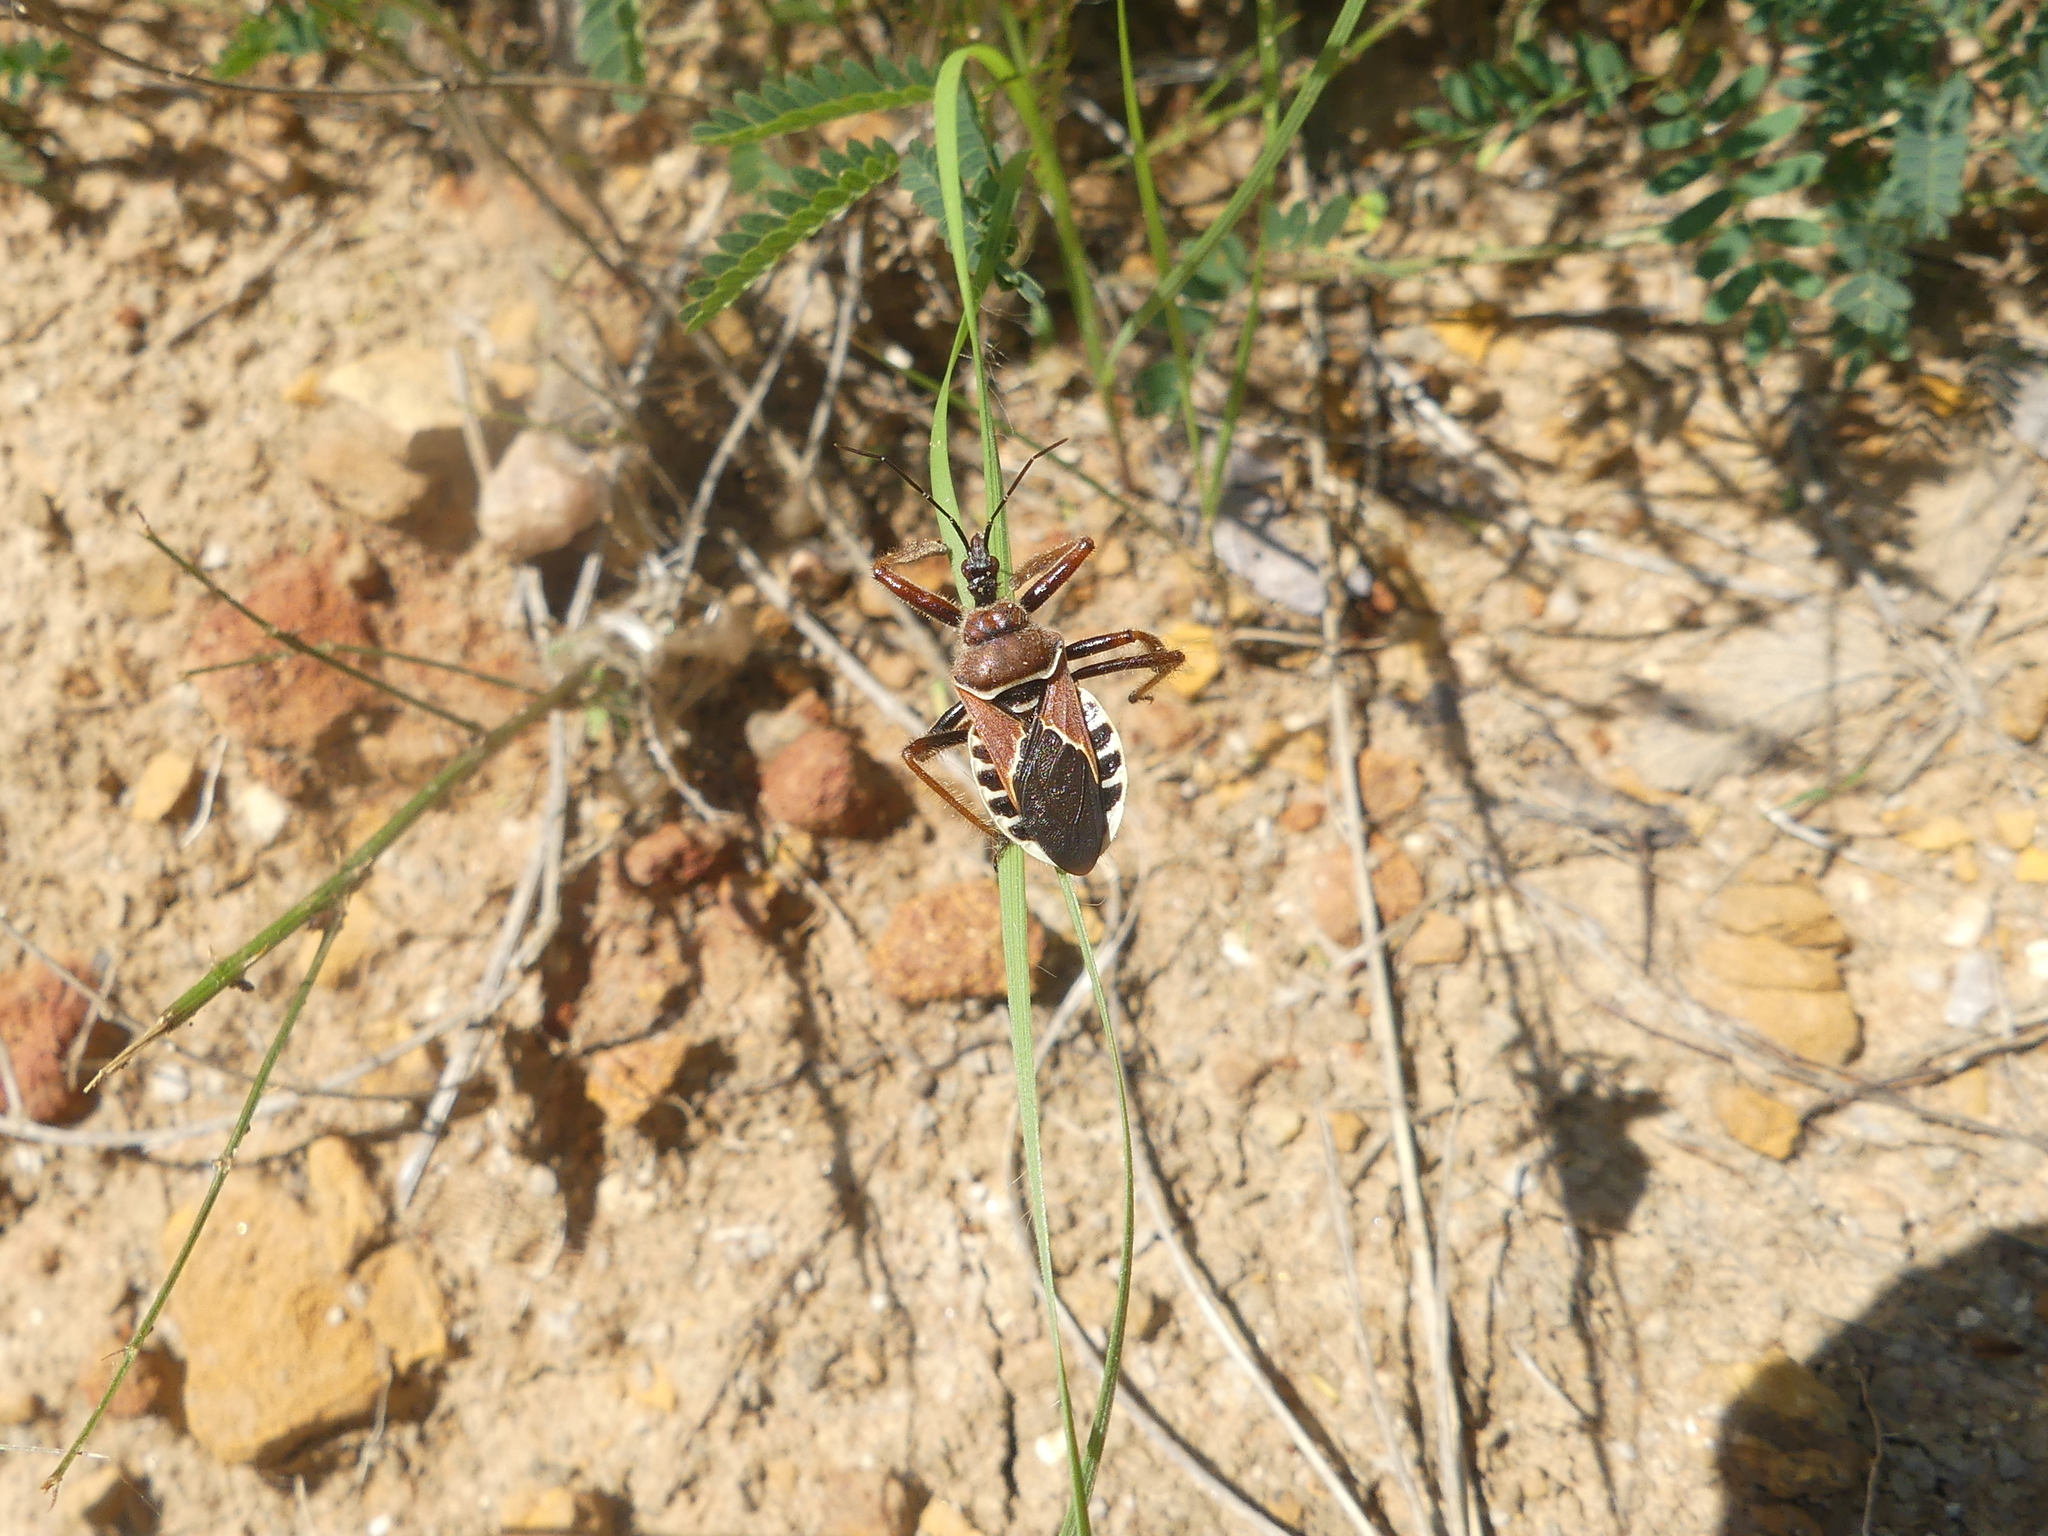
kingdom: Animalia
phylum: Arthropoda
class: Insecta
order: Hemiptera
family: Reduviidae
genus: Apiomerus
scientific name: Apiomerus spissipes
